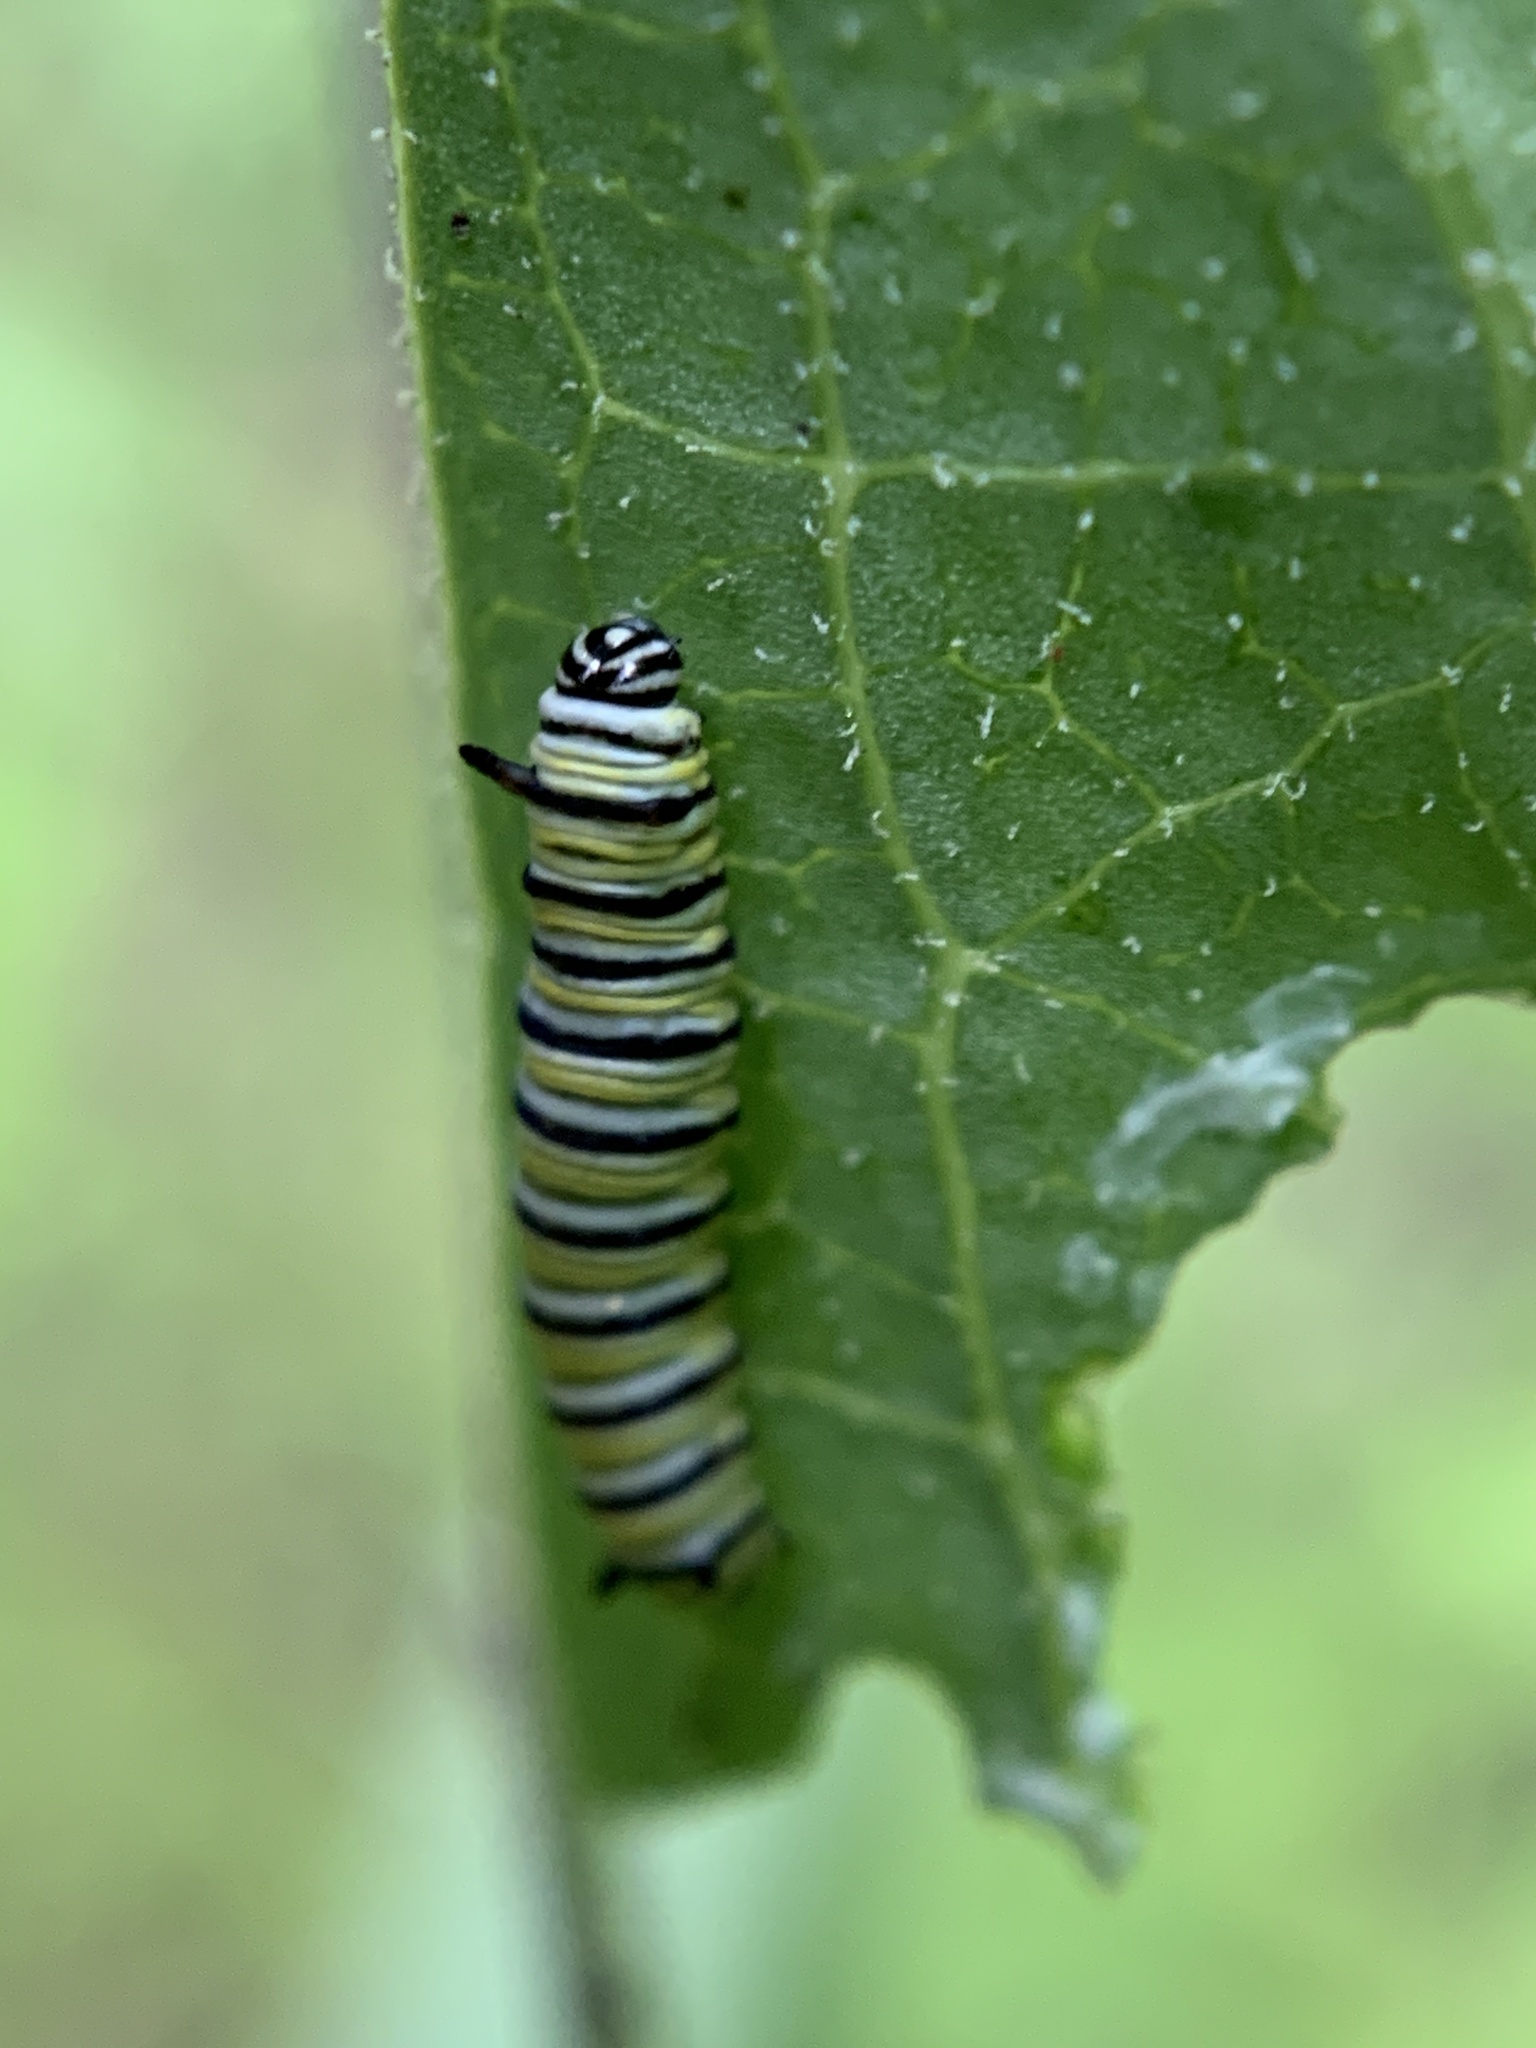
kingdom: Animalia
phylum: Arthropoda
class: Insecta
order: Lepidoptera
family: Nymphalidae
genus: Danaus
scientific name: Danaus plexippus
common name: Monarch
